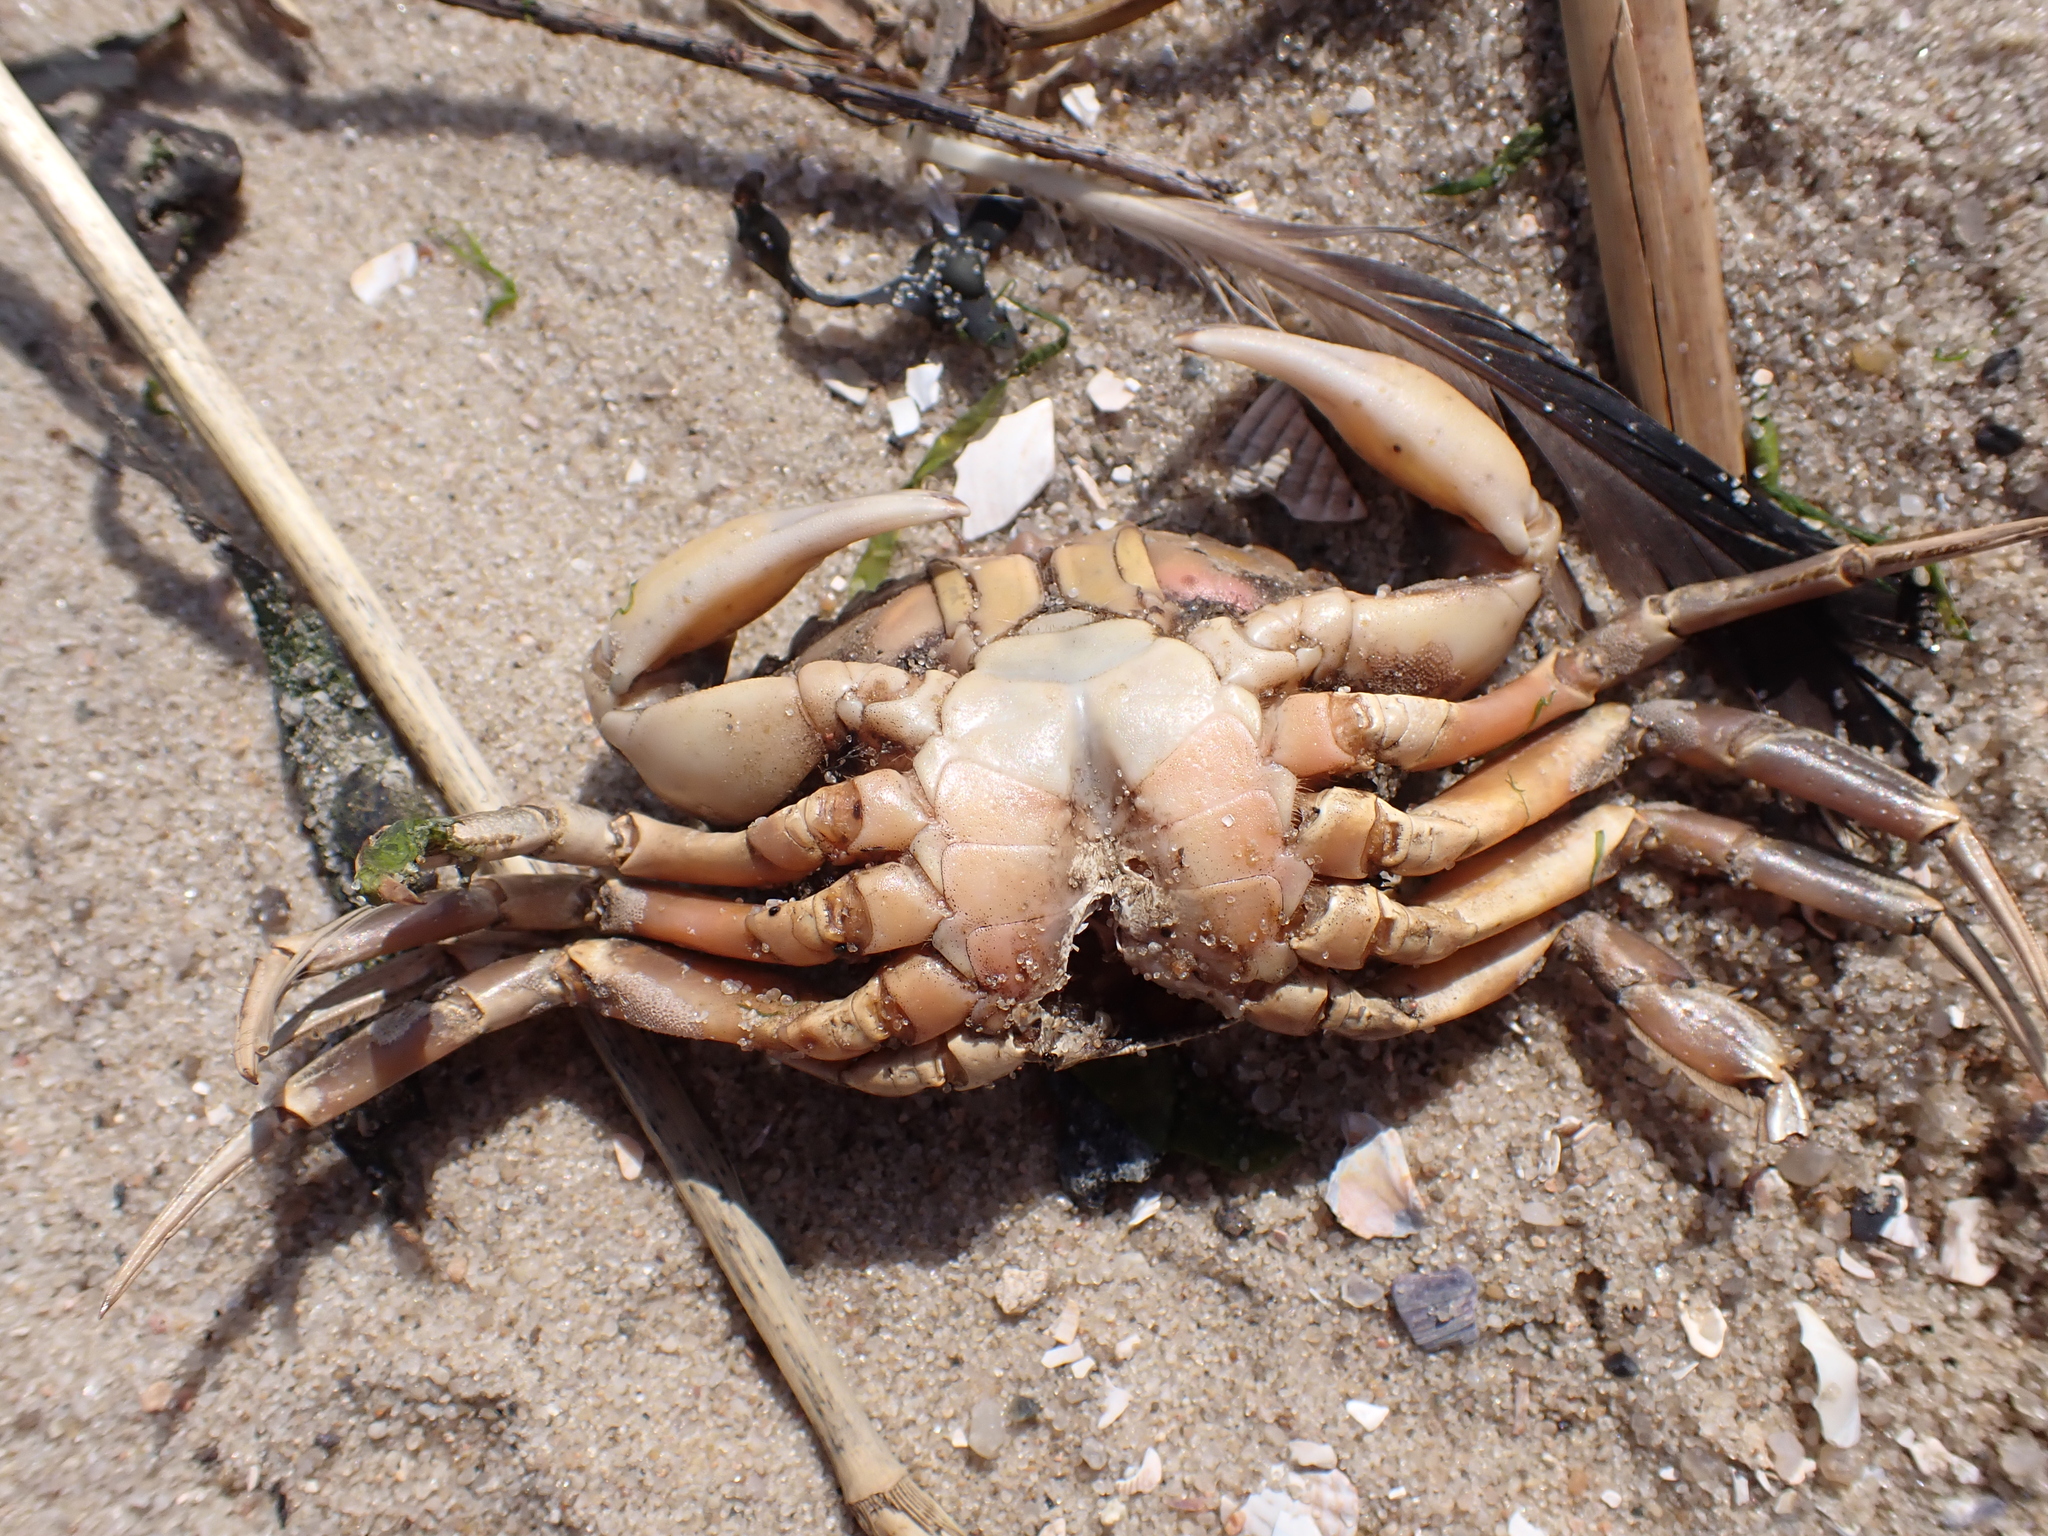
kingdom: Animalia
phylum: Arthropoda
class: Malacostraca
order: Decapoda
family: Carcinidae
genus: Carcinus
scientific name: Carcinus maenas
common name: European green crab
